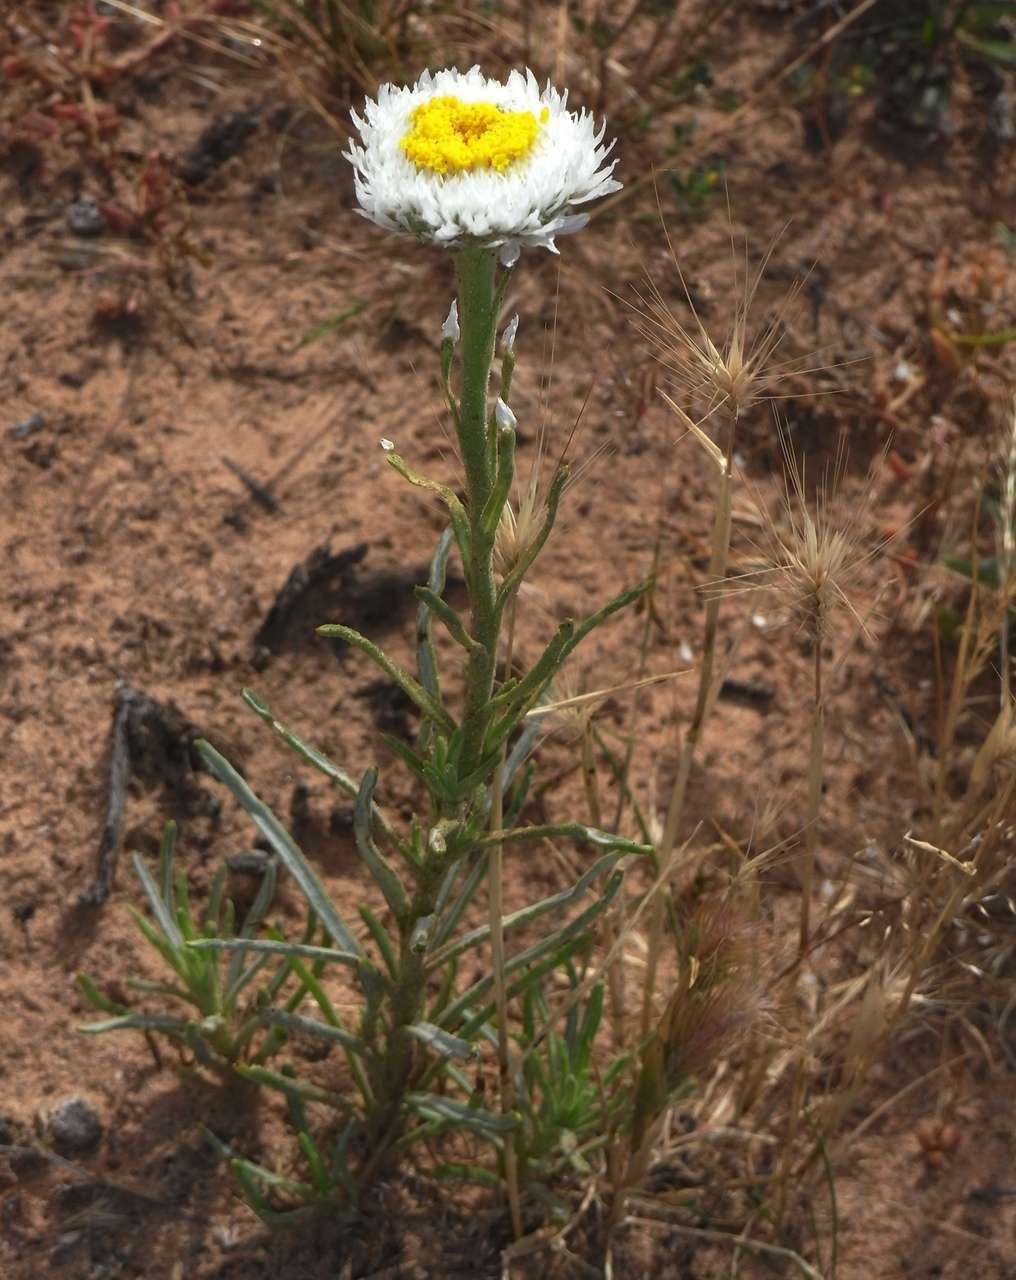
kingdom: Plantae
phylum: Tracheophyta
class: Magnoliopsida
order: Asterales
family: Asteraceae
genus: Polycalymma
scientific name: Polycalymma stuartii
